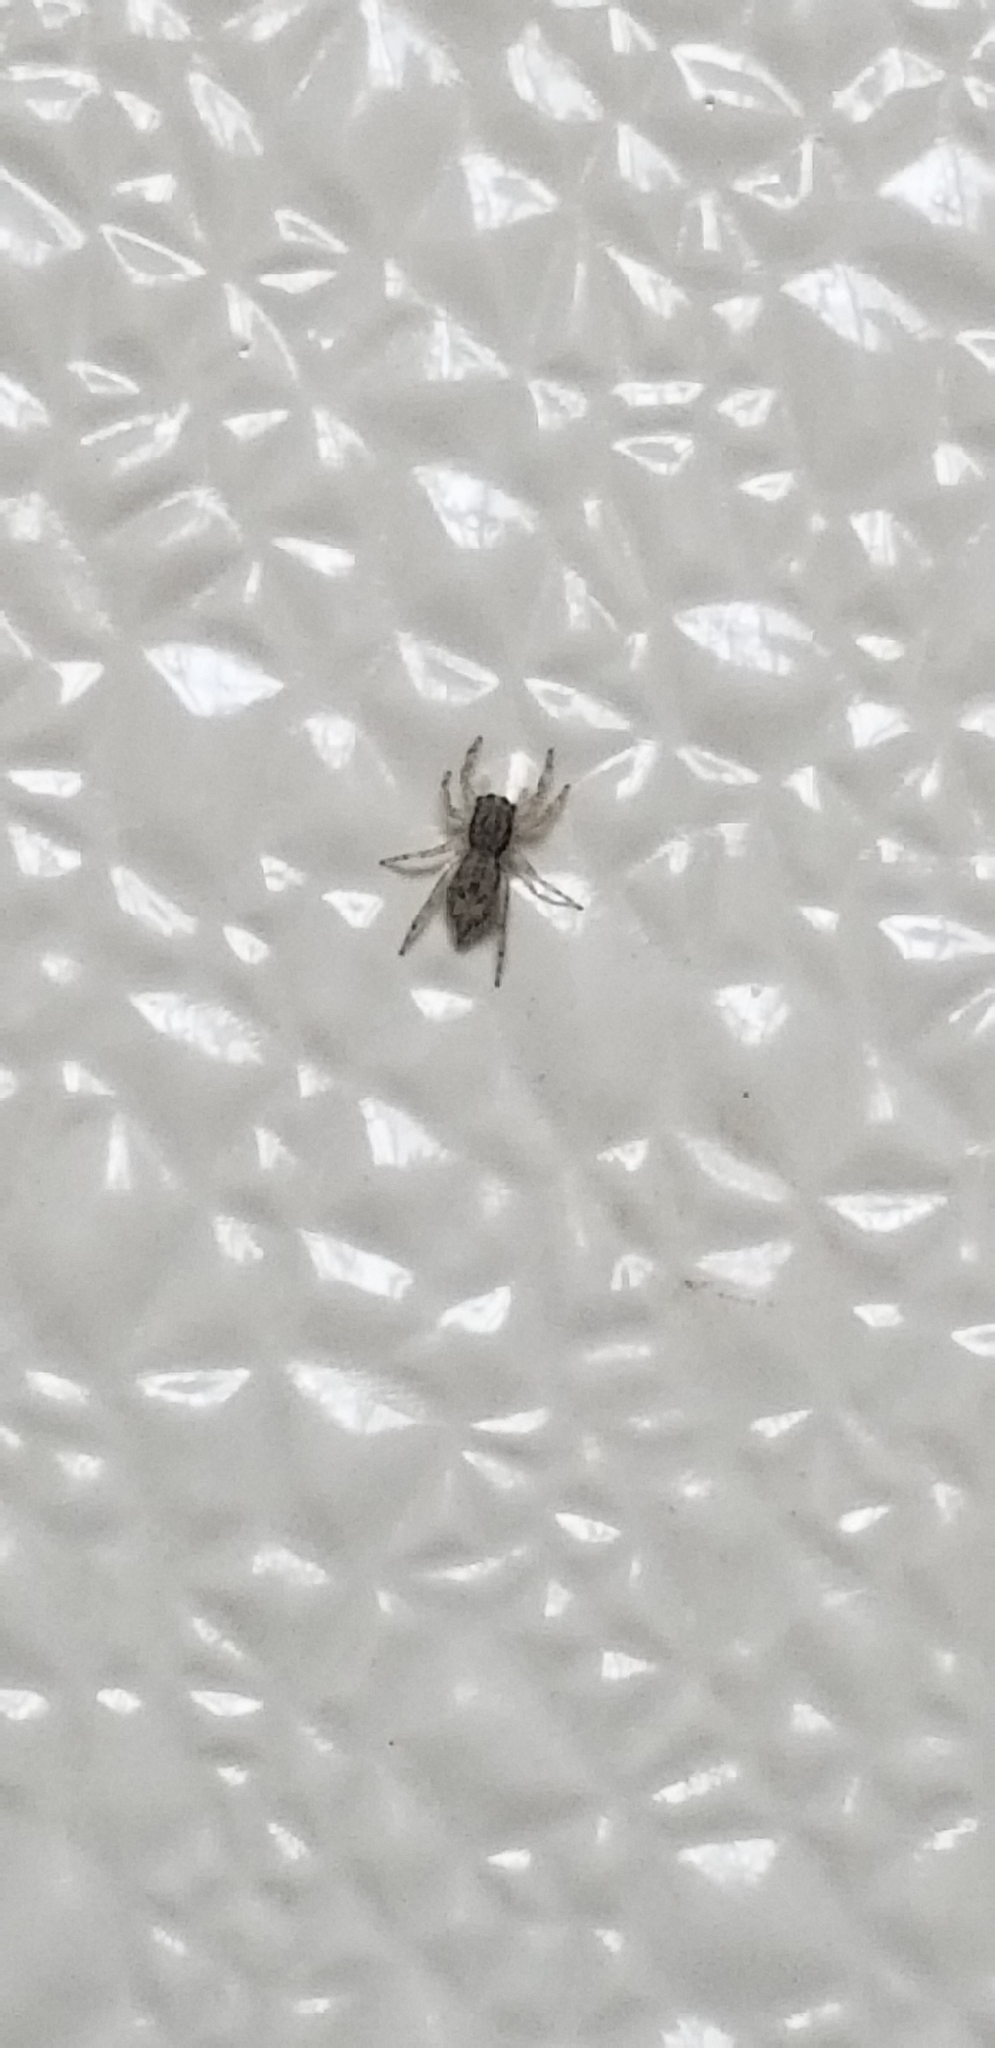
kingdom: Animalia
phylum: Arthropoda
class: Arachnida
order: Araneae
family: Salticidae
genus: Menemerus
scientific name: Menemerus bivittatus
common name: Gray wall jumper
